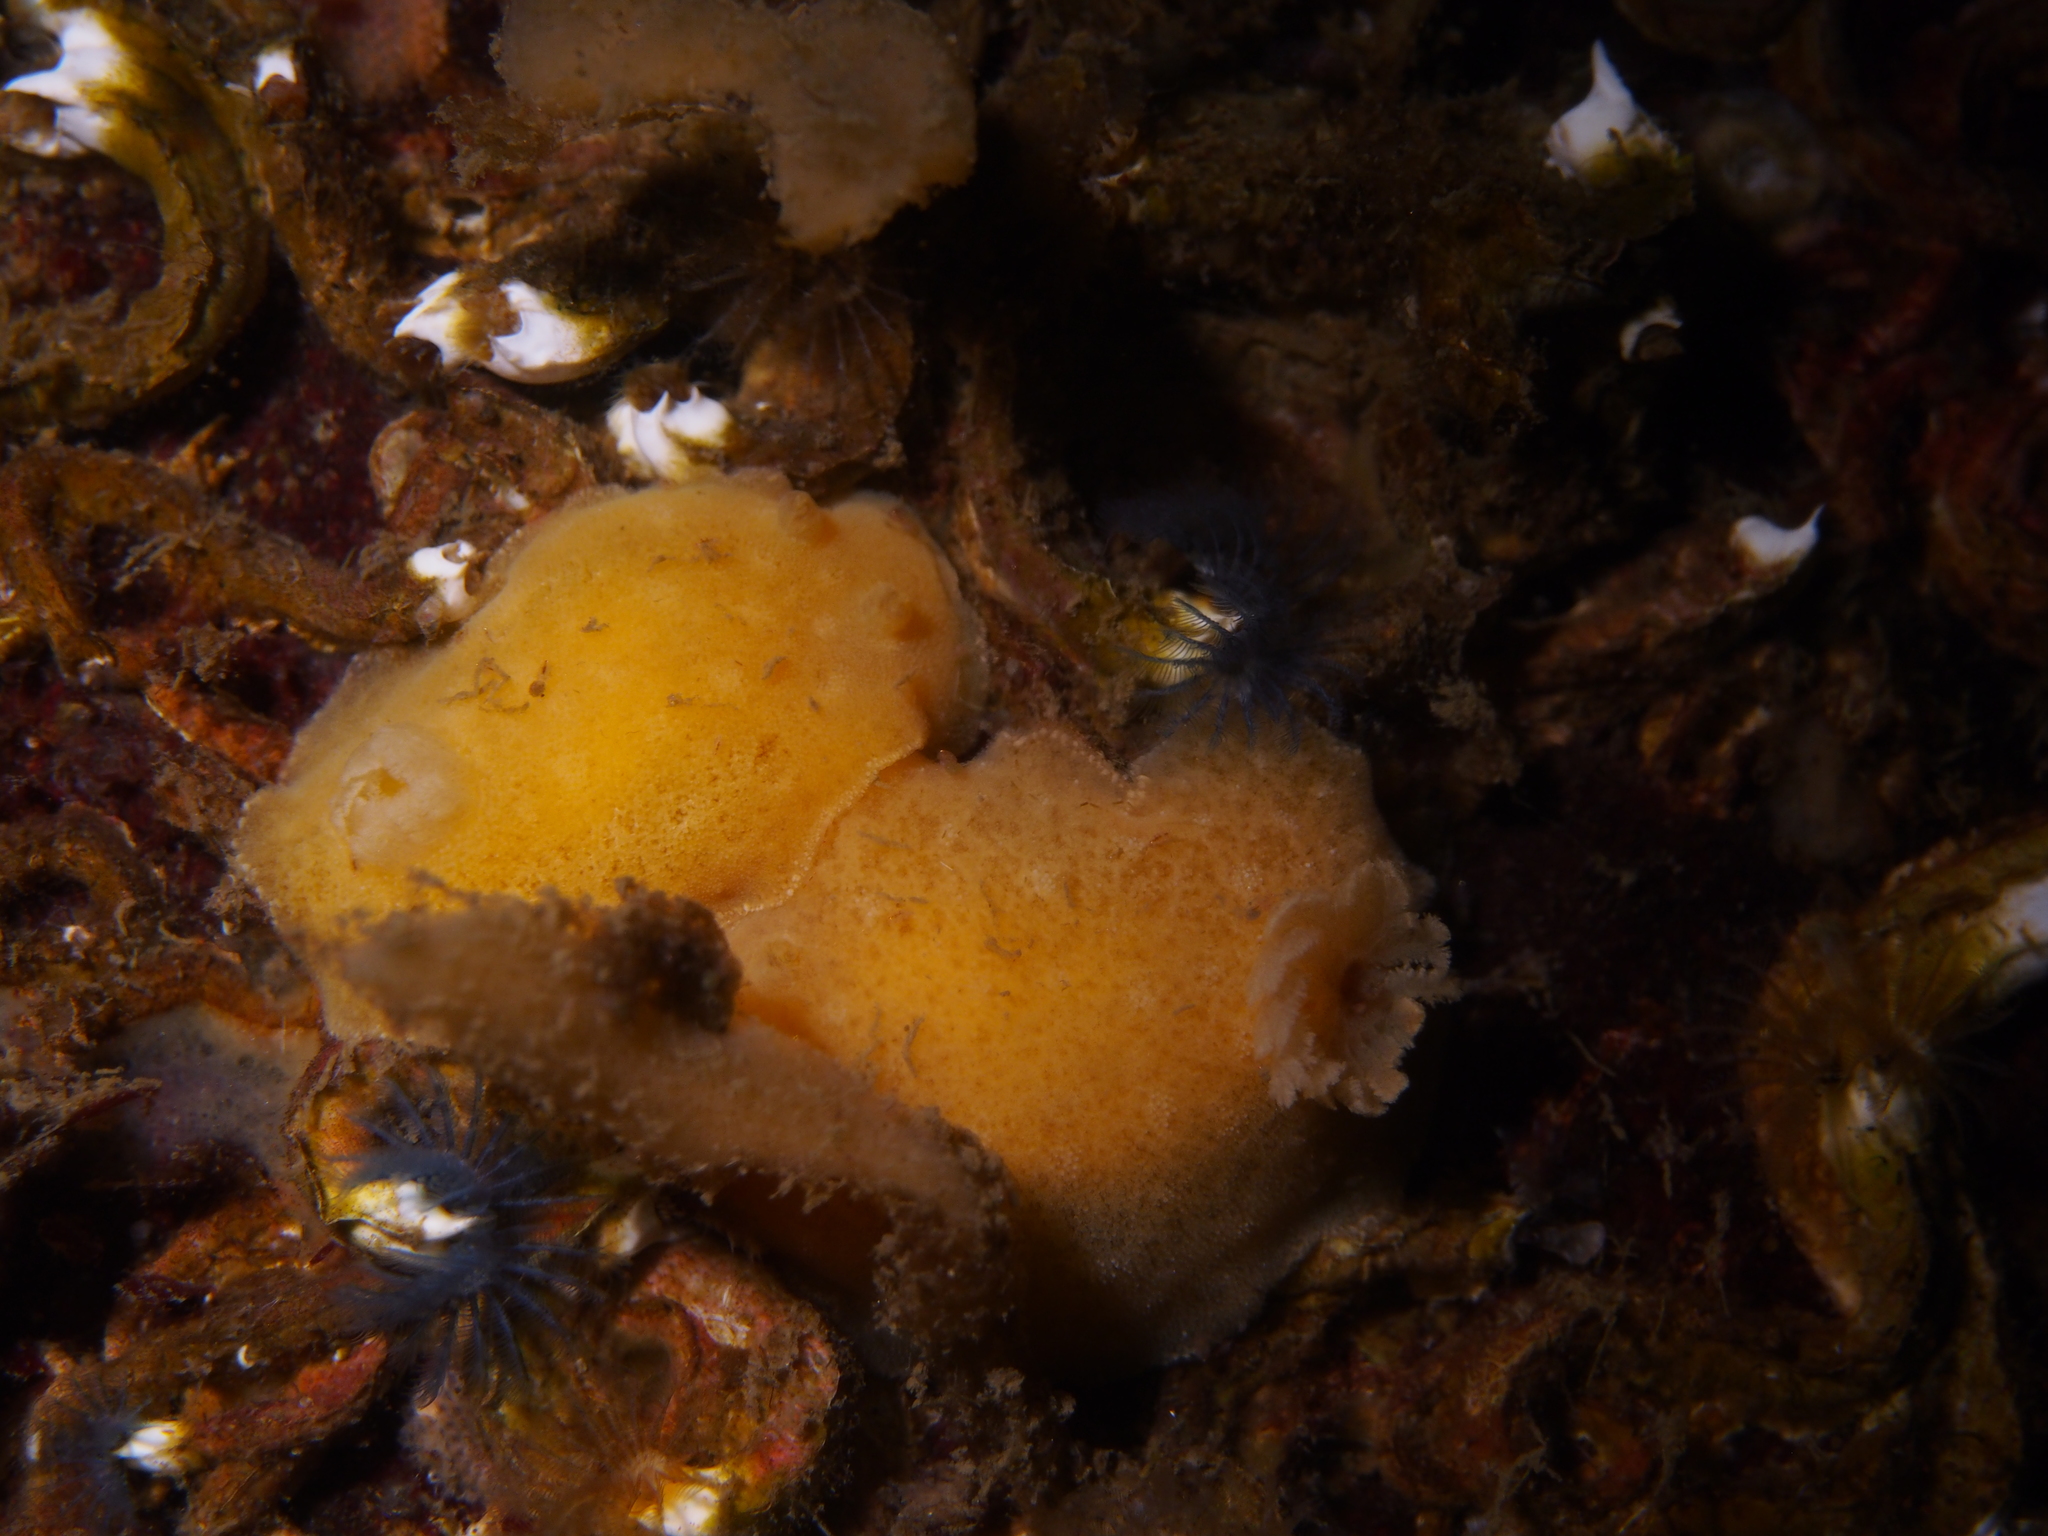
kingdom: Animalia
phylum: Mollusca
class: Gastropoda
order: Nudibranchia
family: Discodorididae
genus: Jorunna
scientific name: Jorunna tomentosa
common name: Grey sea slug
